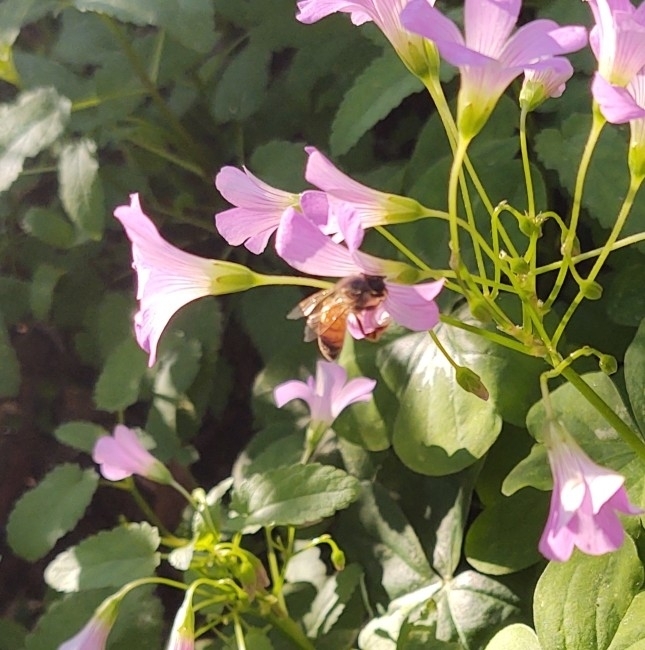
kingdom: Animalia
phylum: Arthropoda
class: Insecta
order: Hymenoptera
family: Apidae
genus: Apis
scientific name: Apis mellifera
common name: Honey bee
